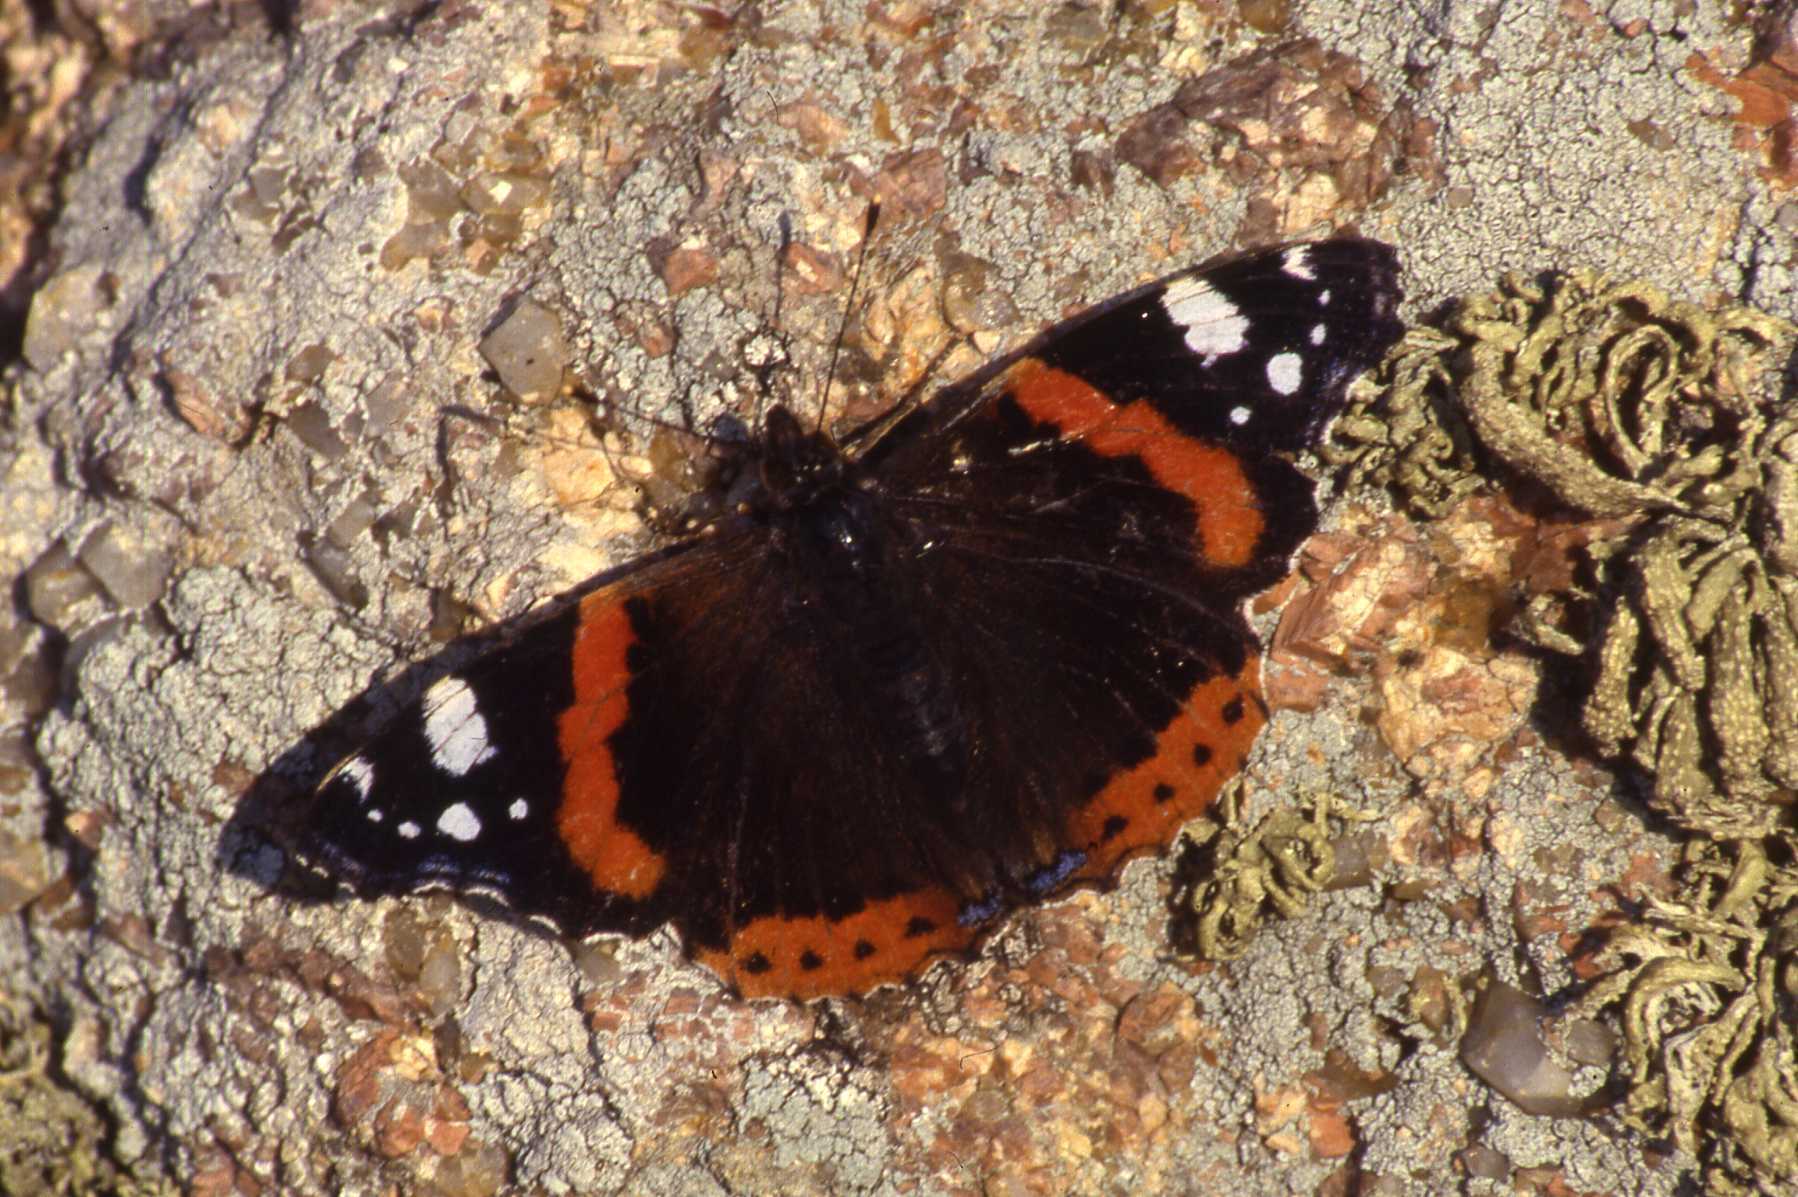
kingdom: Animalia
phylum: Arthropoda
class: Insecta
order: Lepidoptera
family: Nymphalidae
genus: Vanessa
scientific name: Vanessa atalanta
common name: Red admiral
